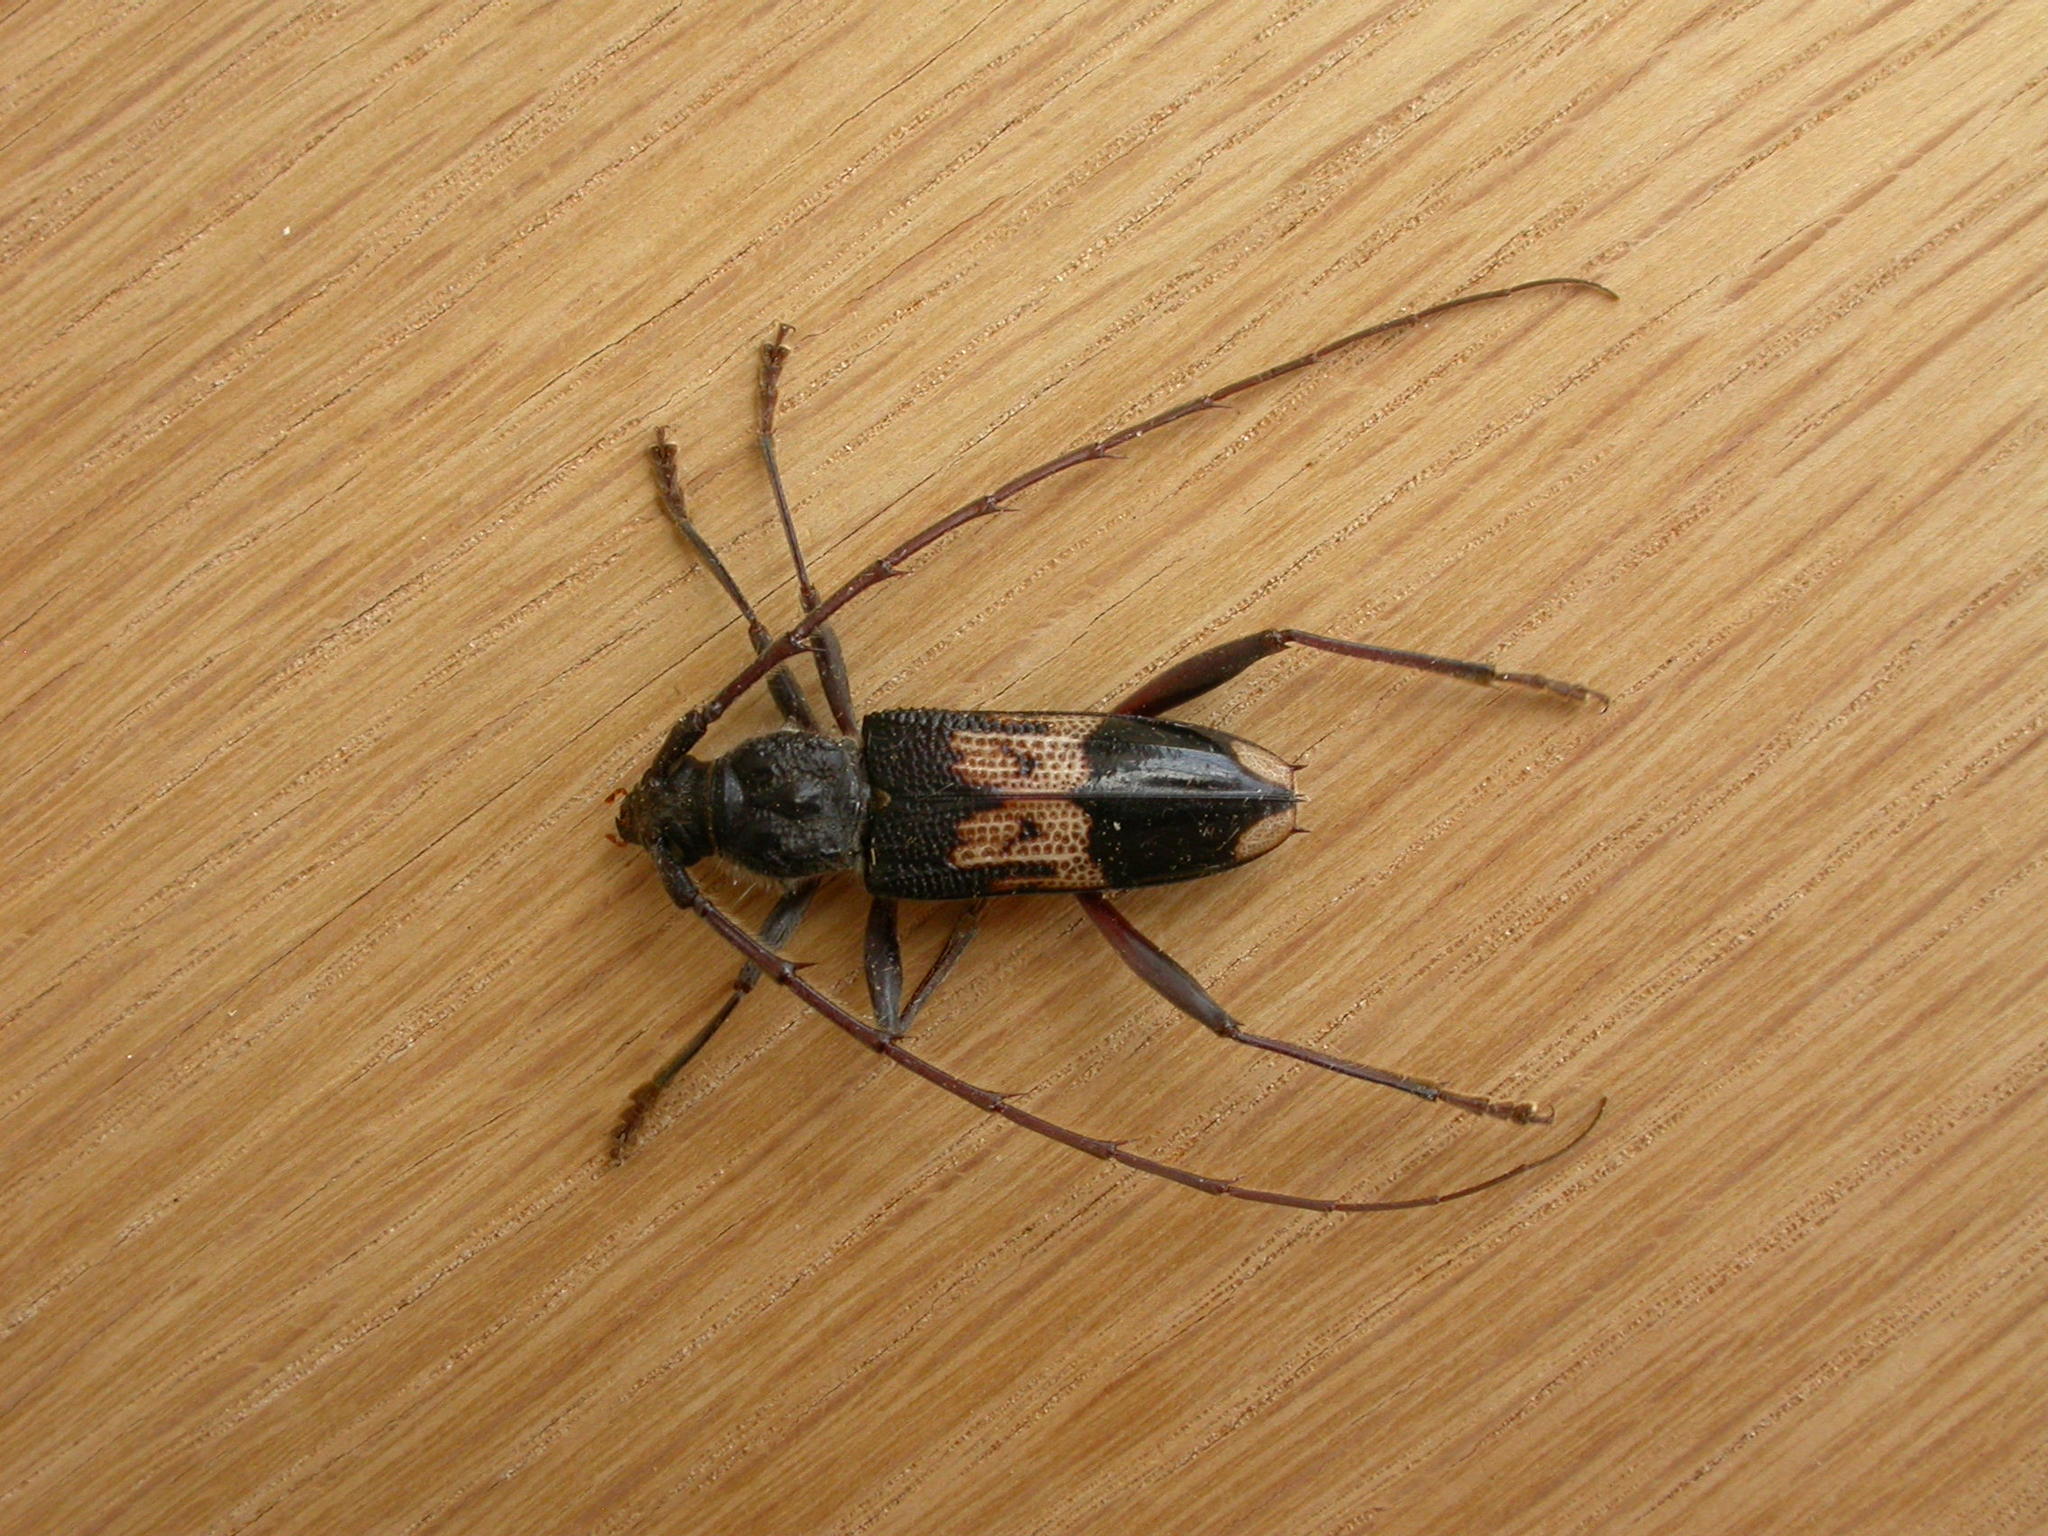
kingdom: Animalia
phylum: Arthropoda
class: Insecta
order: Coleoptera
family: Cerambycidae
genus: Phoracantha
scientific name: Phoracantha semipunctata
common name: Eucalyptus longhorn borer
